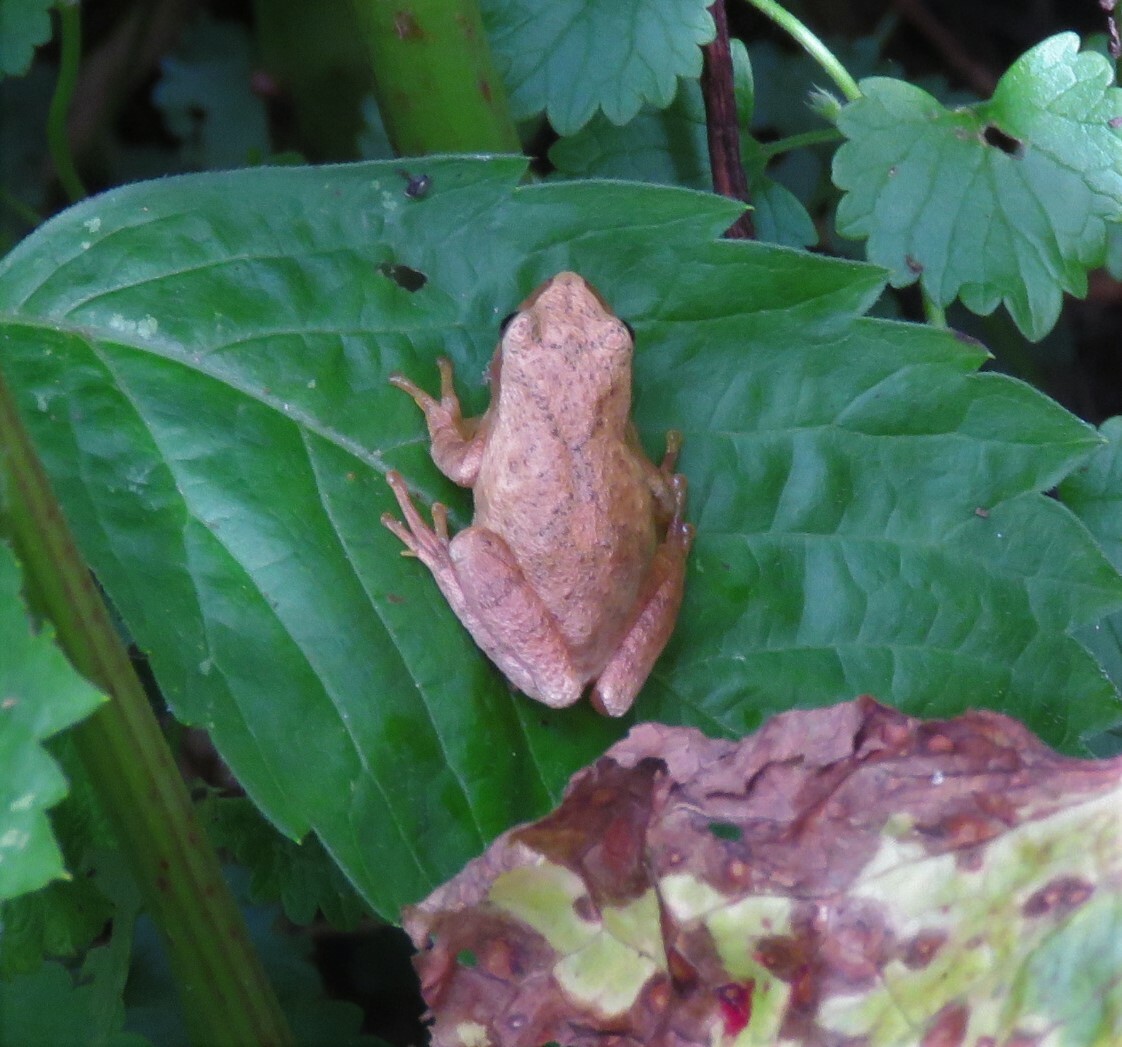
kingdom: Animalia
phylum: Chordata
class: Amphibia
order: Anura
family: Hylidae
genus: Pseudacris
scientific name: Pseudacris crucifer
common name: Spring peeper
